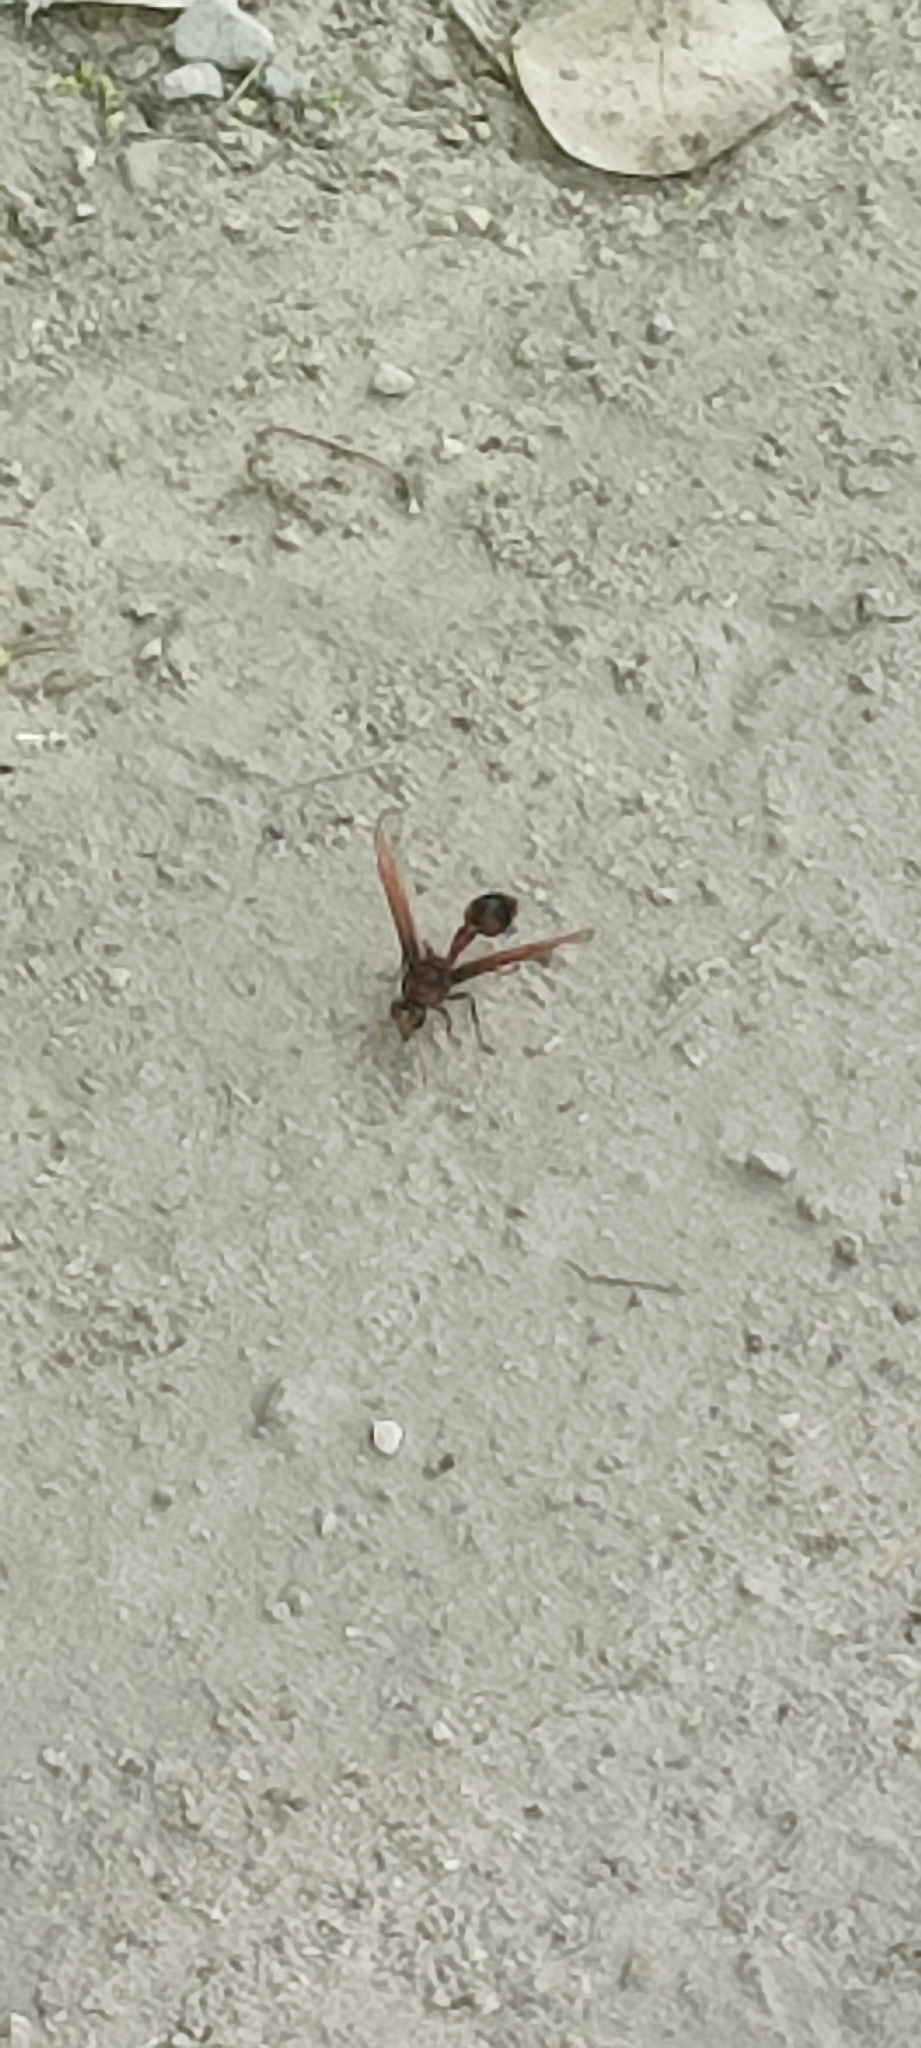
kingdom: Animalia
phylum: Arthropoda
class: Insecta
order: Hymenoptera
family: Eumenidae
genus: Delta
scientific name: Delta pyriforme
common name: Wasp
